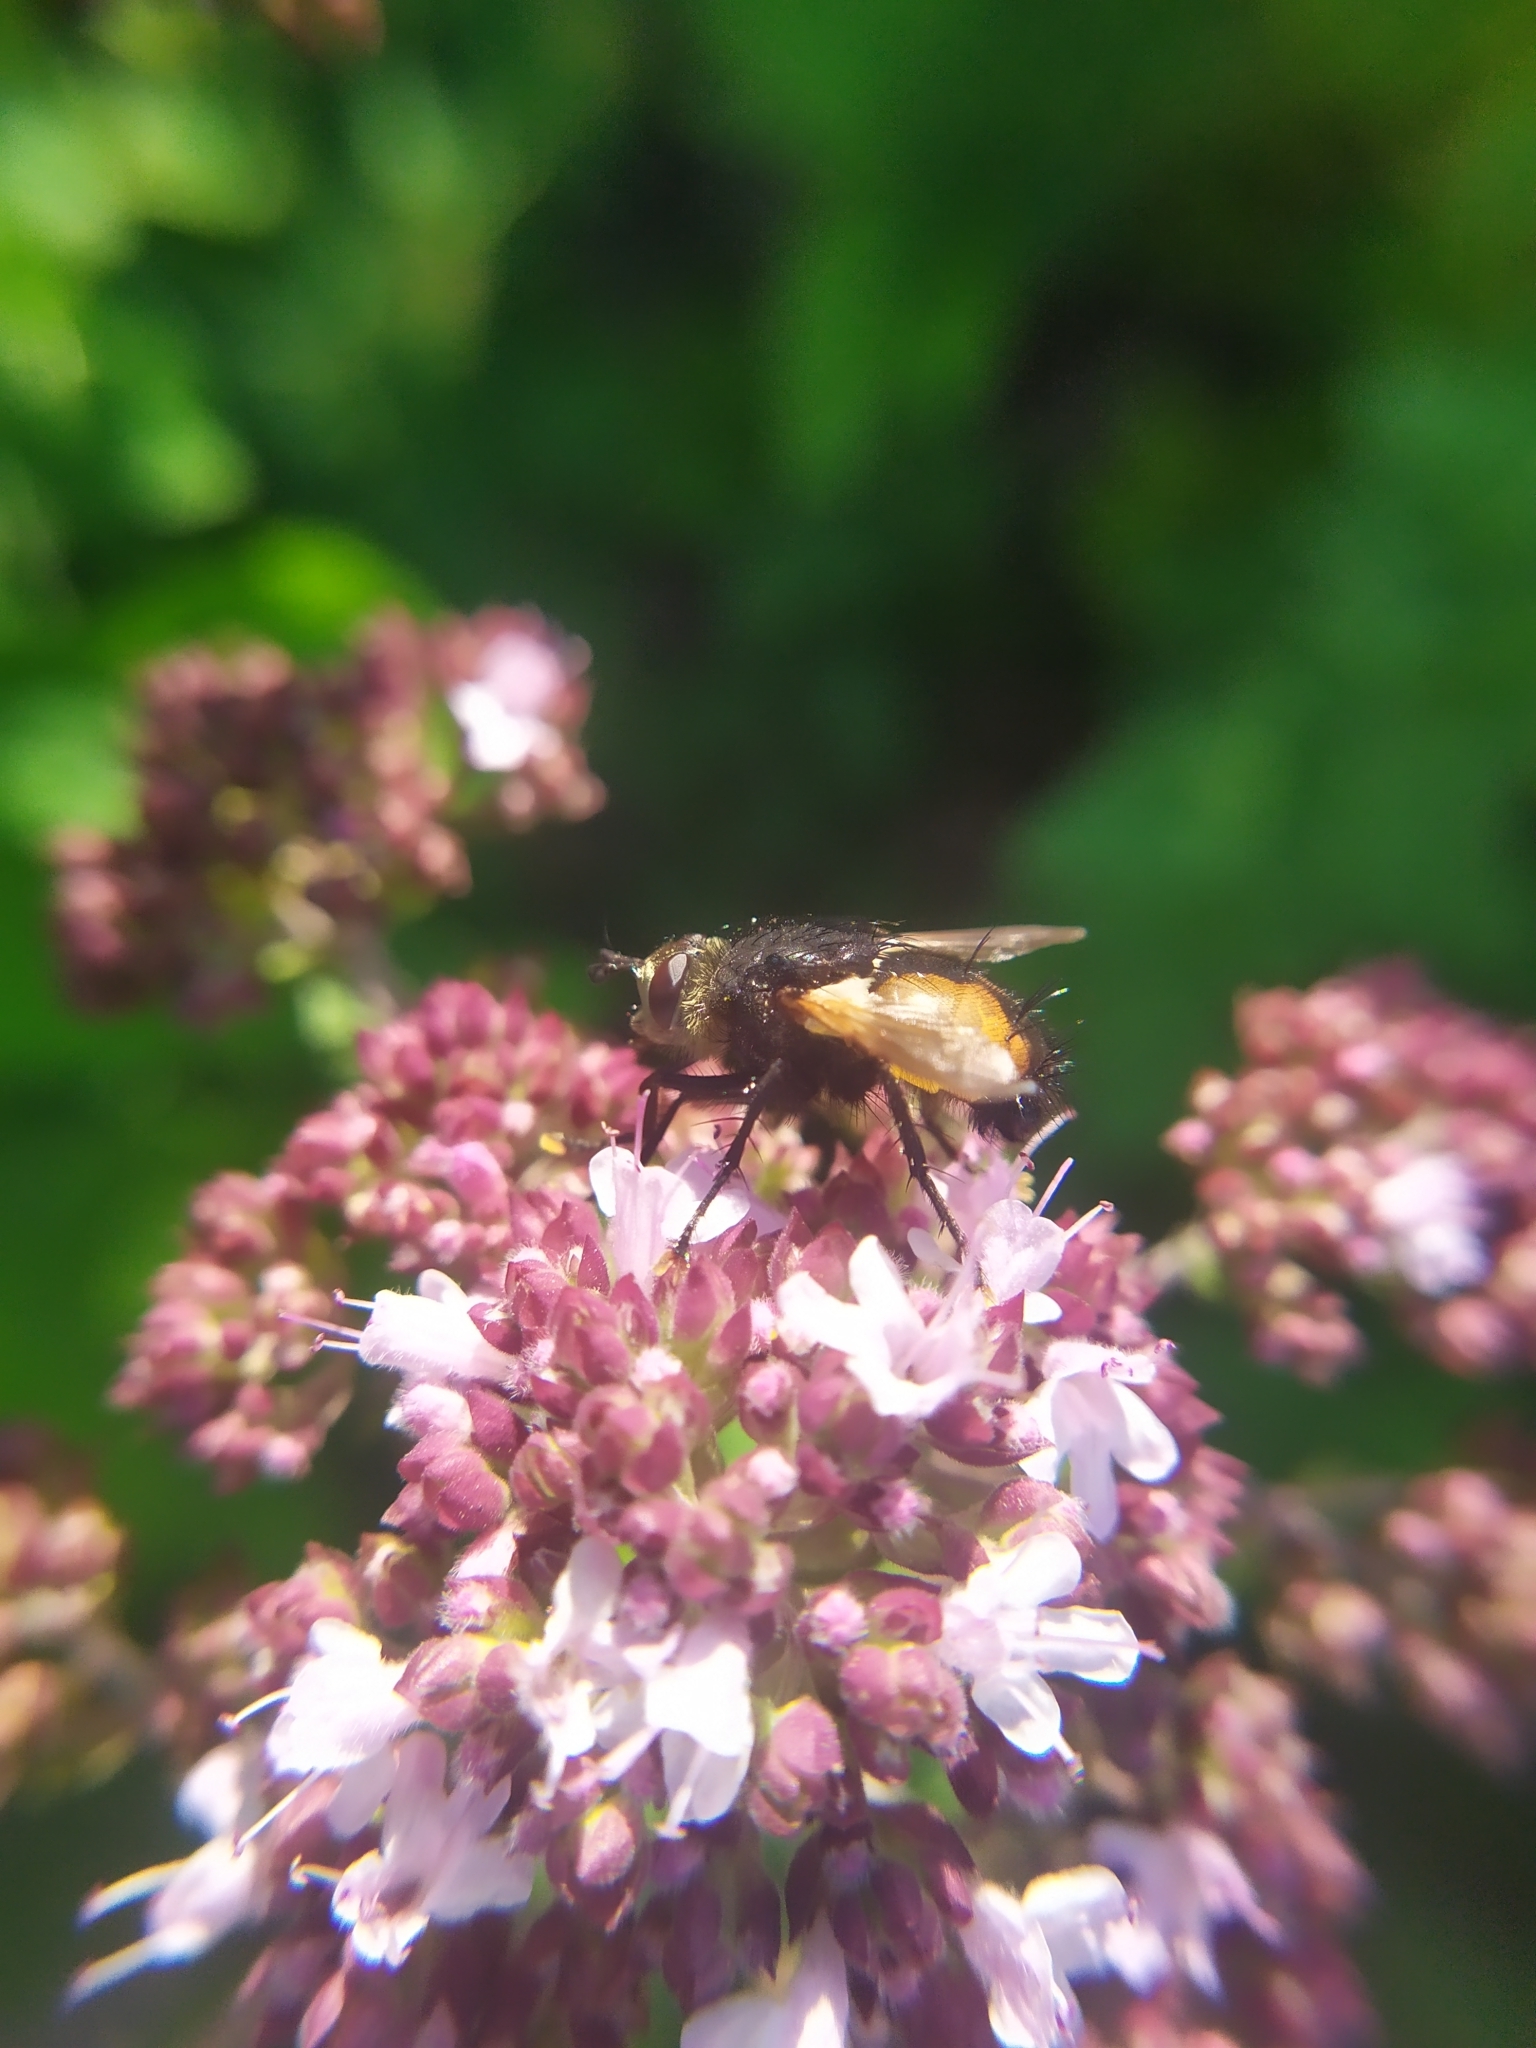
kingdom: Animalia
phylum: Arthropoda
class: Insecta
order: Diptera
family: Tachinidae
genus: Nowickia
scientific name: Nowickia ferox
